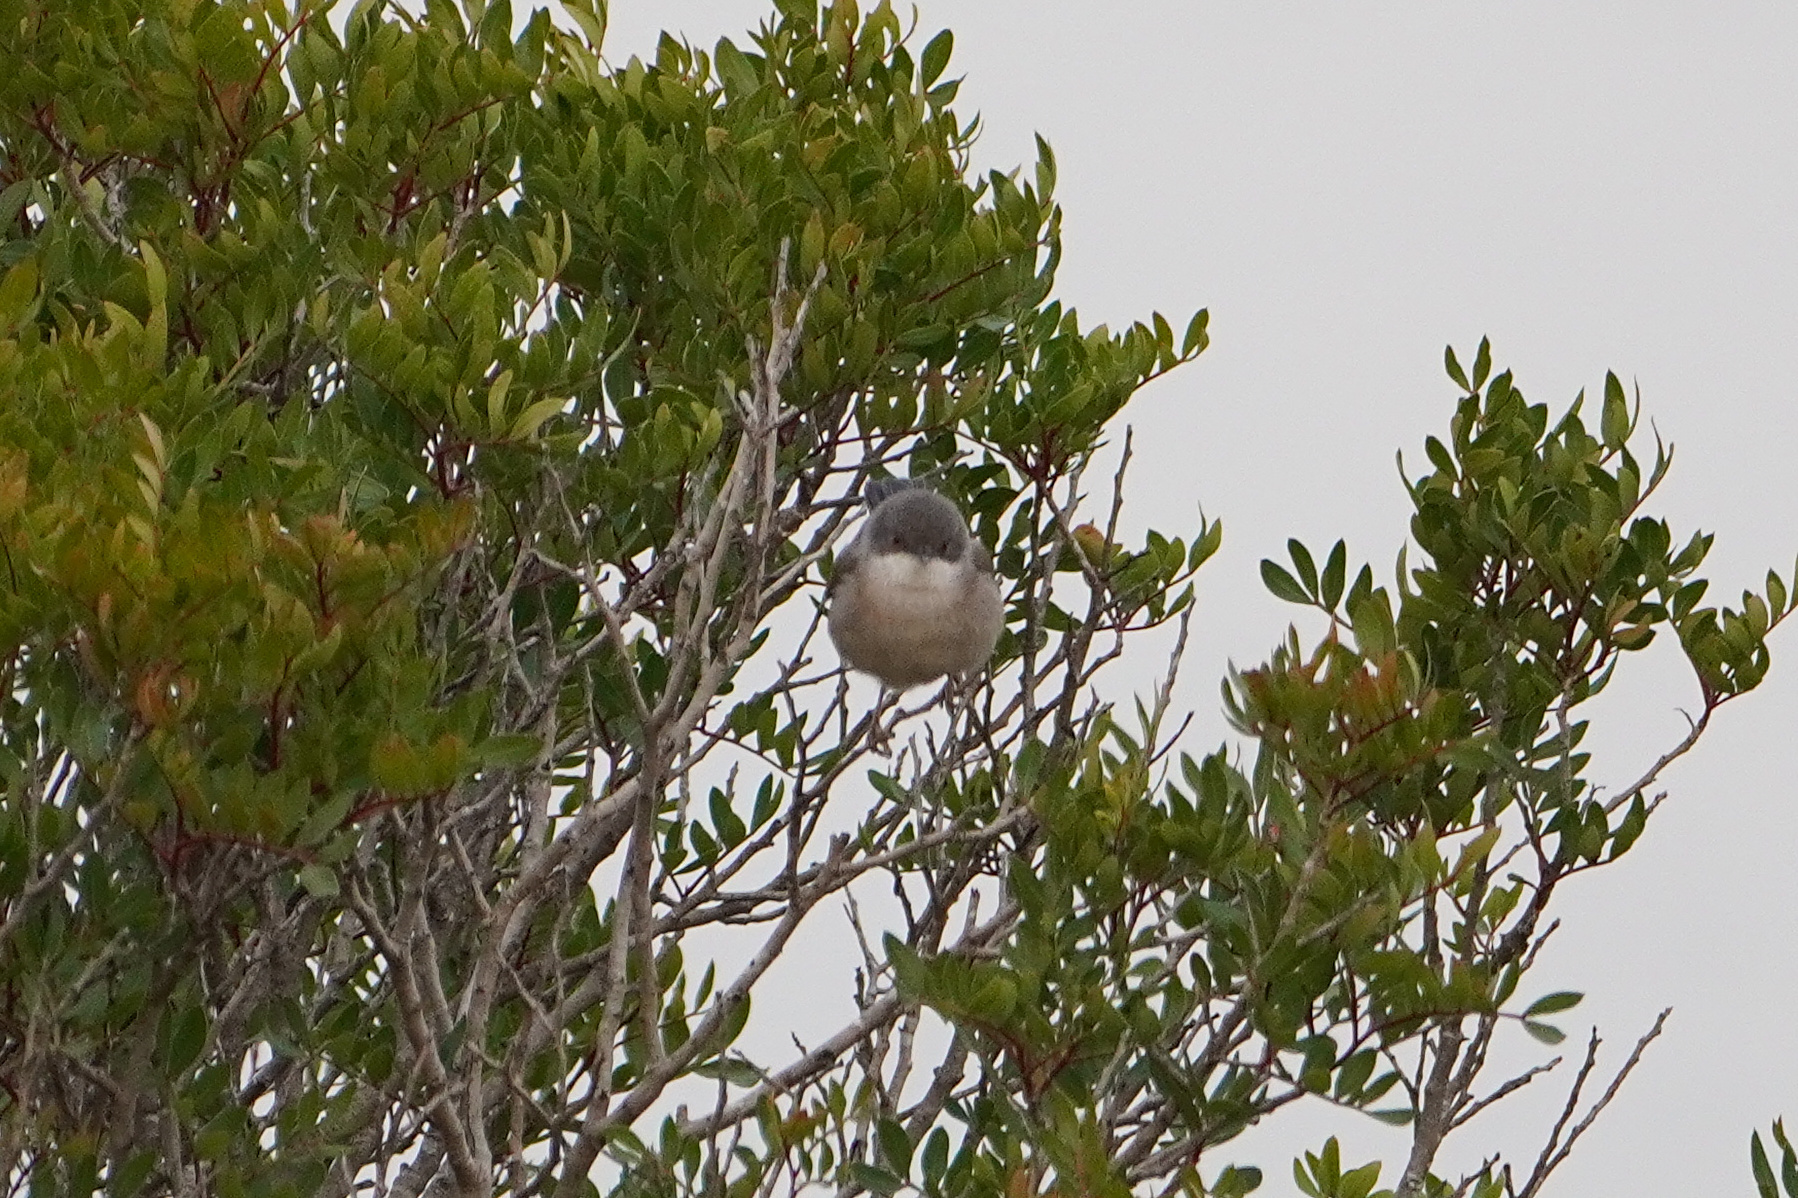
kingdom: Animalia
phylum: Chordata
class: Aves
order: Passeriformes
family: Sylviidae
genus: Curruca
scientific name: Curruca melanocephala
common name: Sardinian warbler
